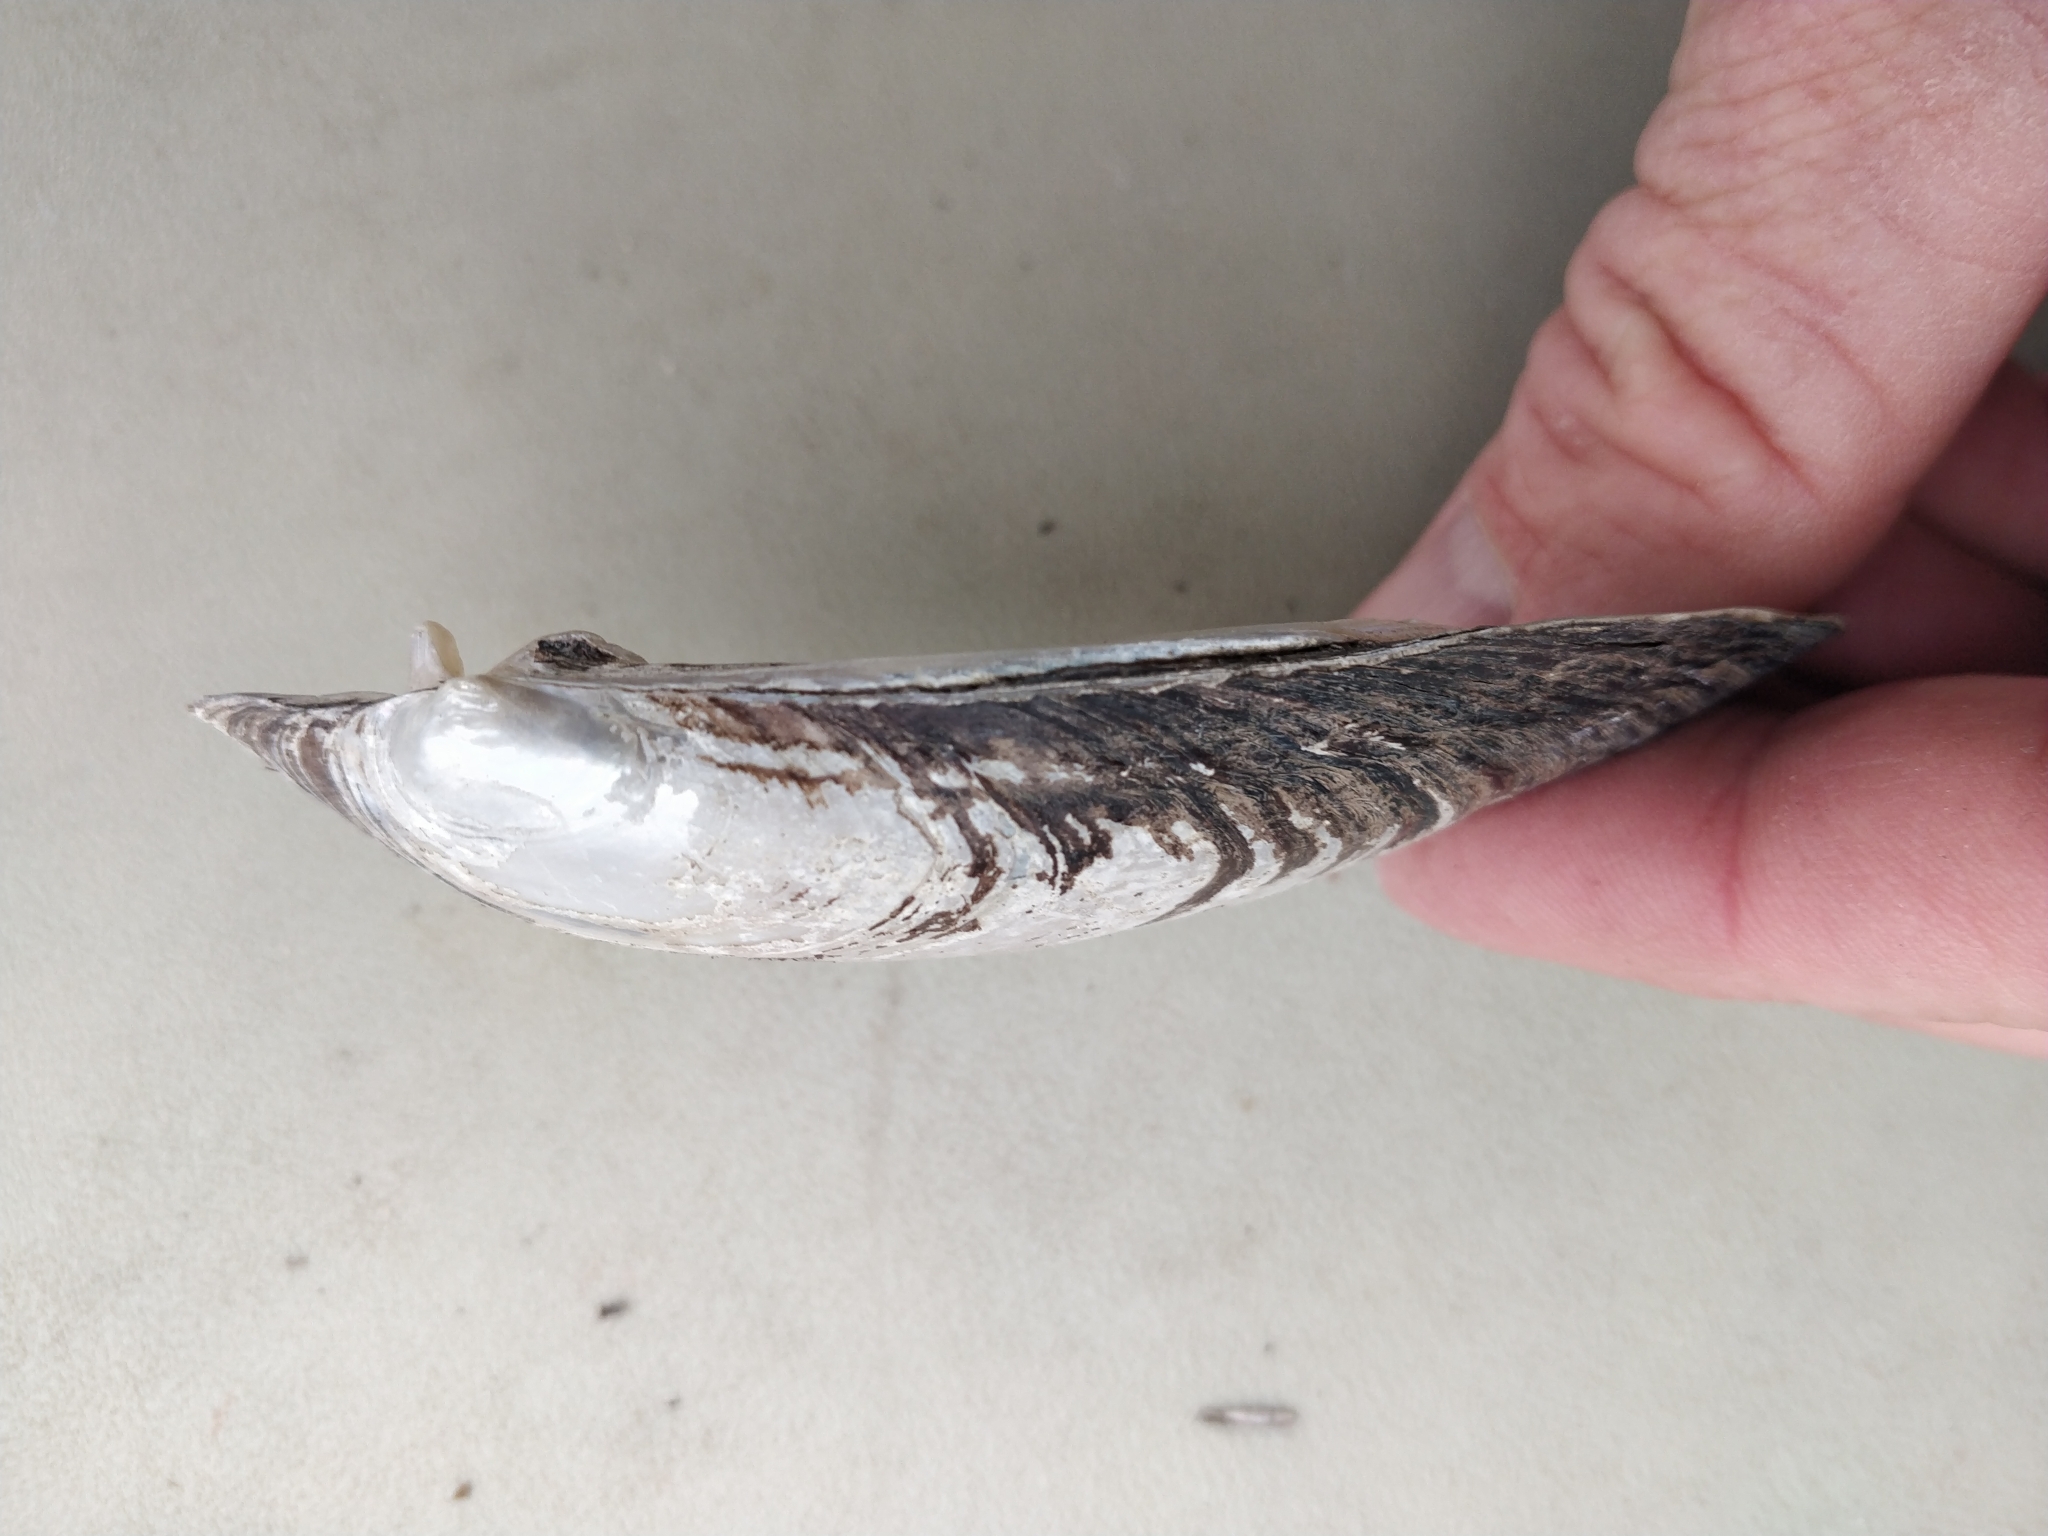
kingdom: Animalia
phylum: Mollusca
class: Bivalvia
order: Unionida
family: Unionidae
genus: Lampsilis
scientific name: Lampsilis siliquoidea
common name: Fatmucket
